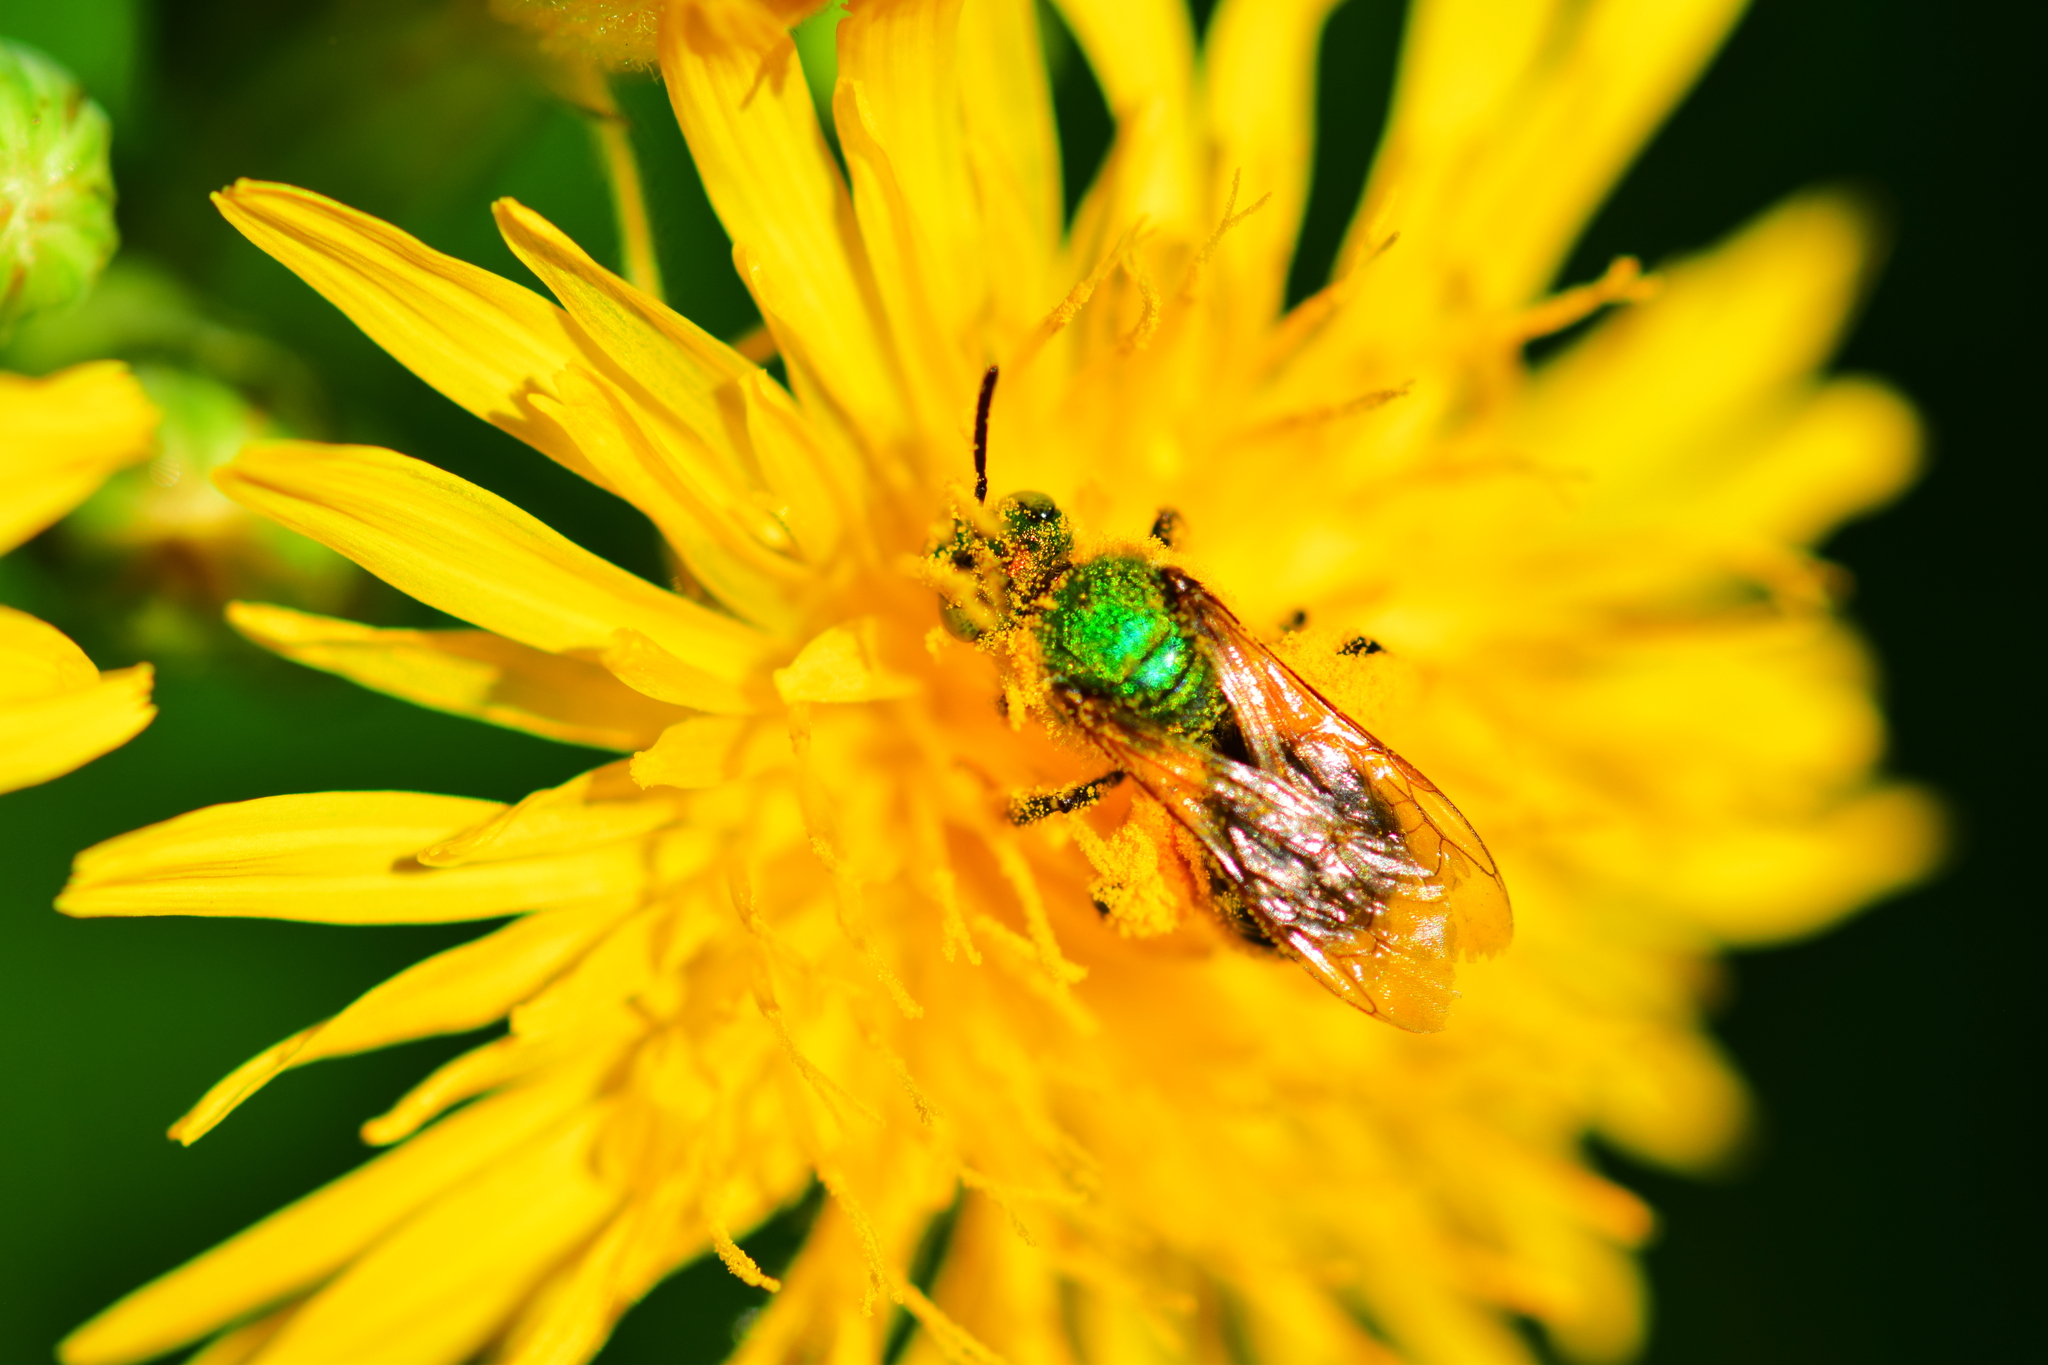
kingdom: Animalia
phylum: Arthropoda
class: Insecta
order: Hymenoptera
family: Halictidae
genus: Agapostemon
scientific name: Agapostemon virescens
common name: Bicolored striped sweat bee
